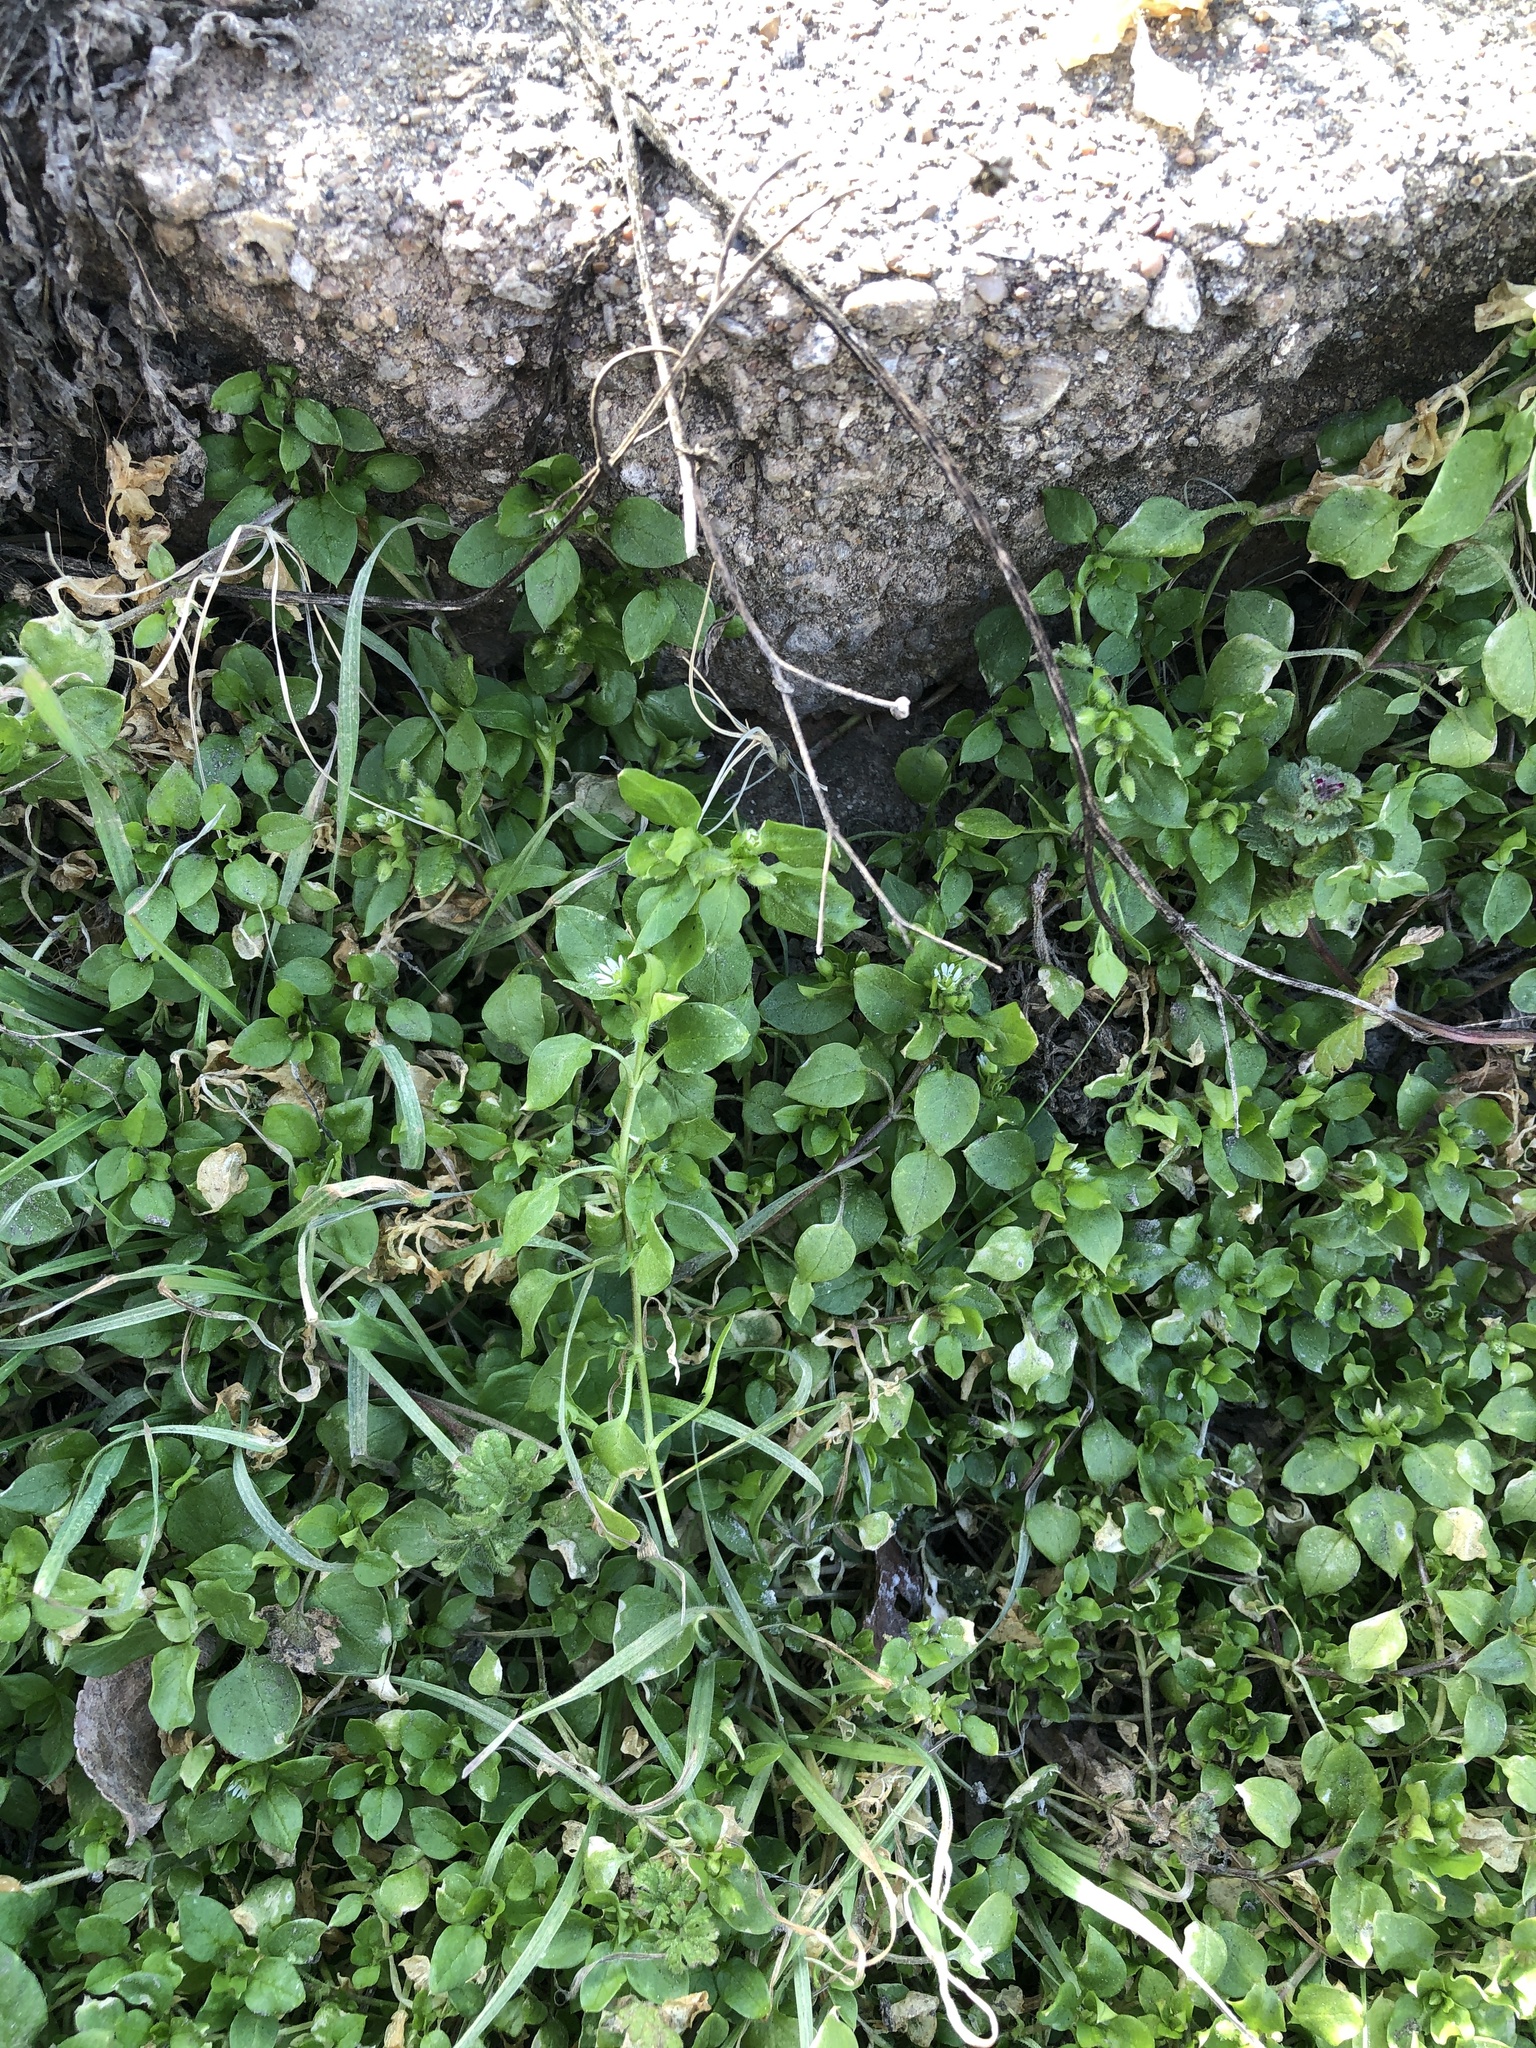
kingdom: Plantae
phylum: Tracheophyta
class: Magnoliopsida
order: Caryophyllales
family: Caryophyllaceae
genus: Stellaria
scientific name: Stellaria media
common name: Common chickweed
